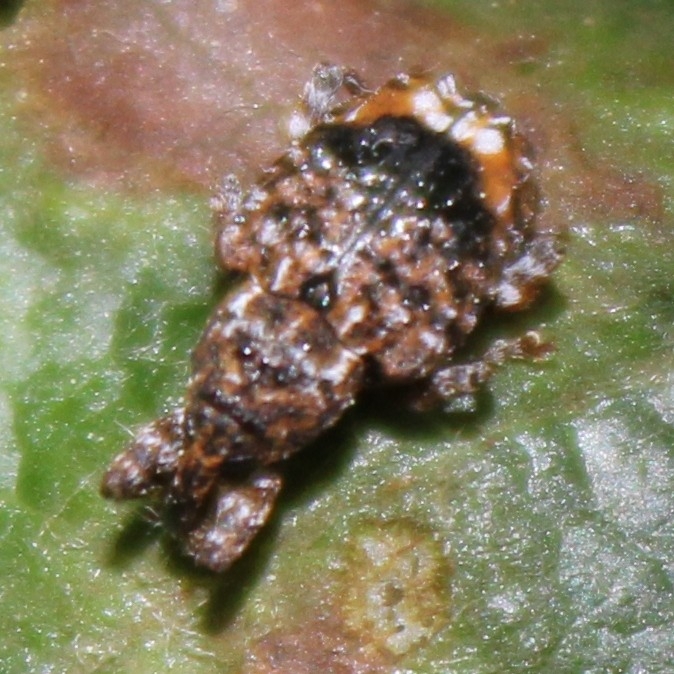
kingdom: Animalia
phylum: Arthropoda
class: Insecta
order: Coleoptera
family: Curculionidae
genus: Conotrachelus
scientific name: Conotrachelus nenuphar
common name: Plum curculio
